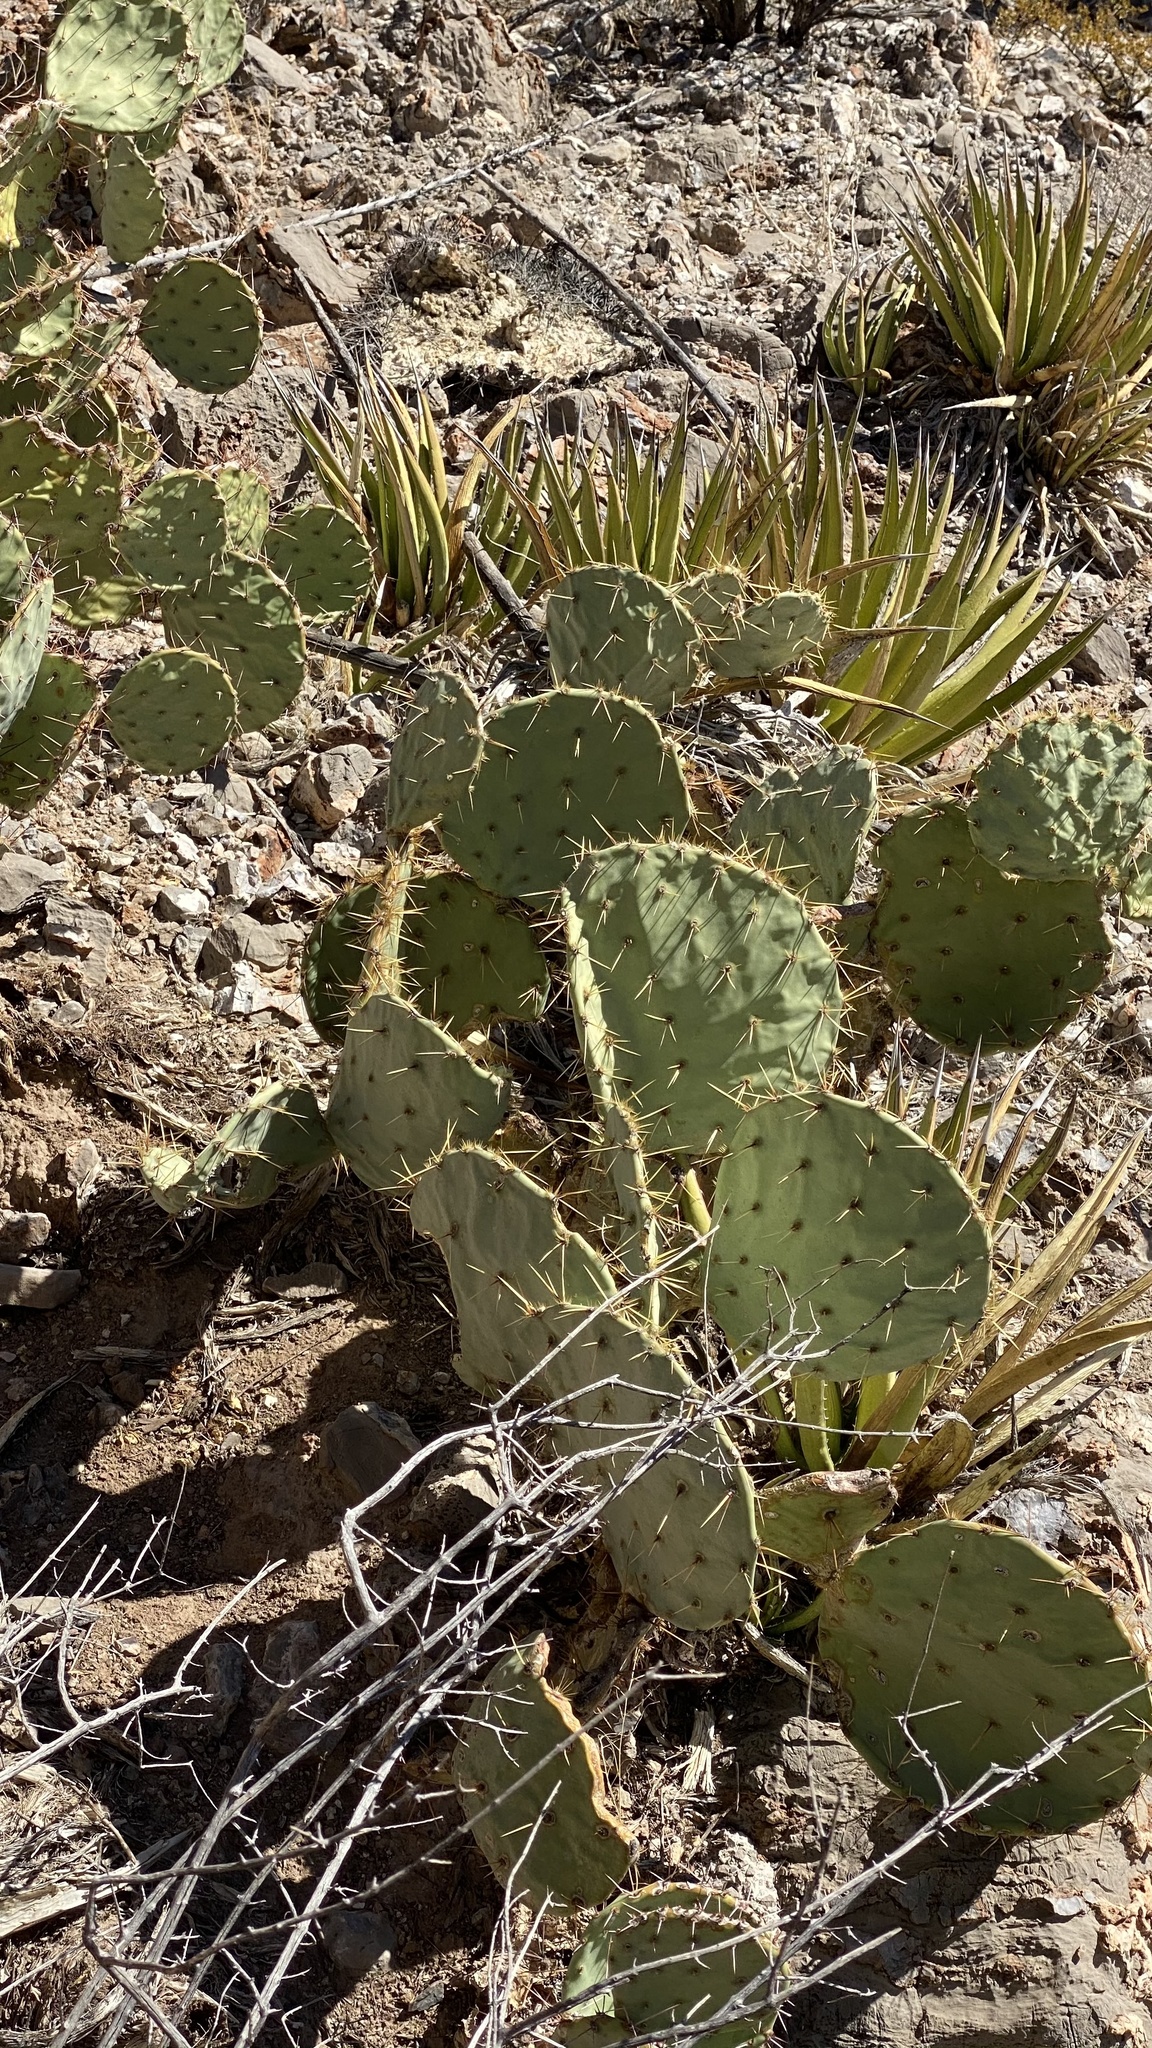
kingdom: Plantae
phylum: Tracheophyta
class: Magnoliopsida
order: Caryophyllales
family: Cactaceae
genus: Opuntia
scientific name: Opuntia orbiculata
